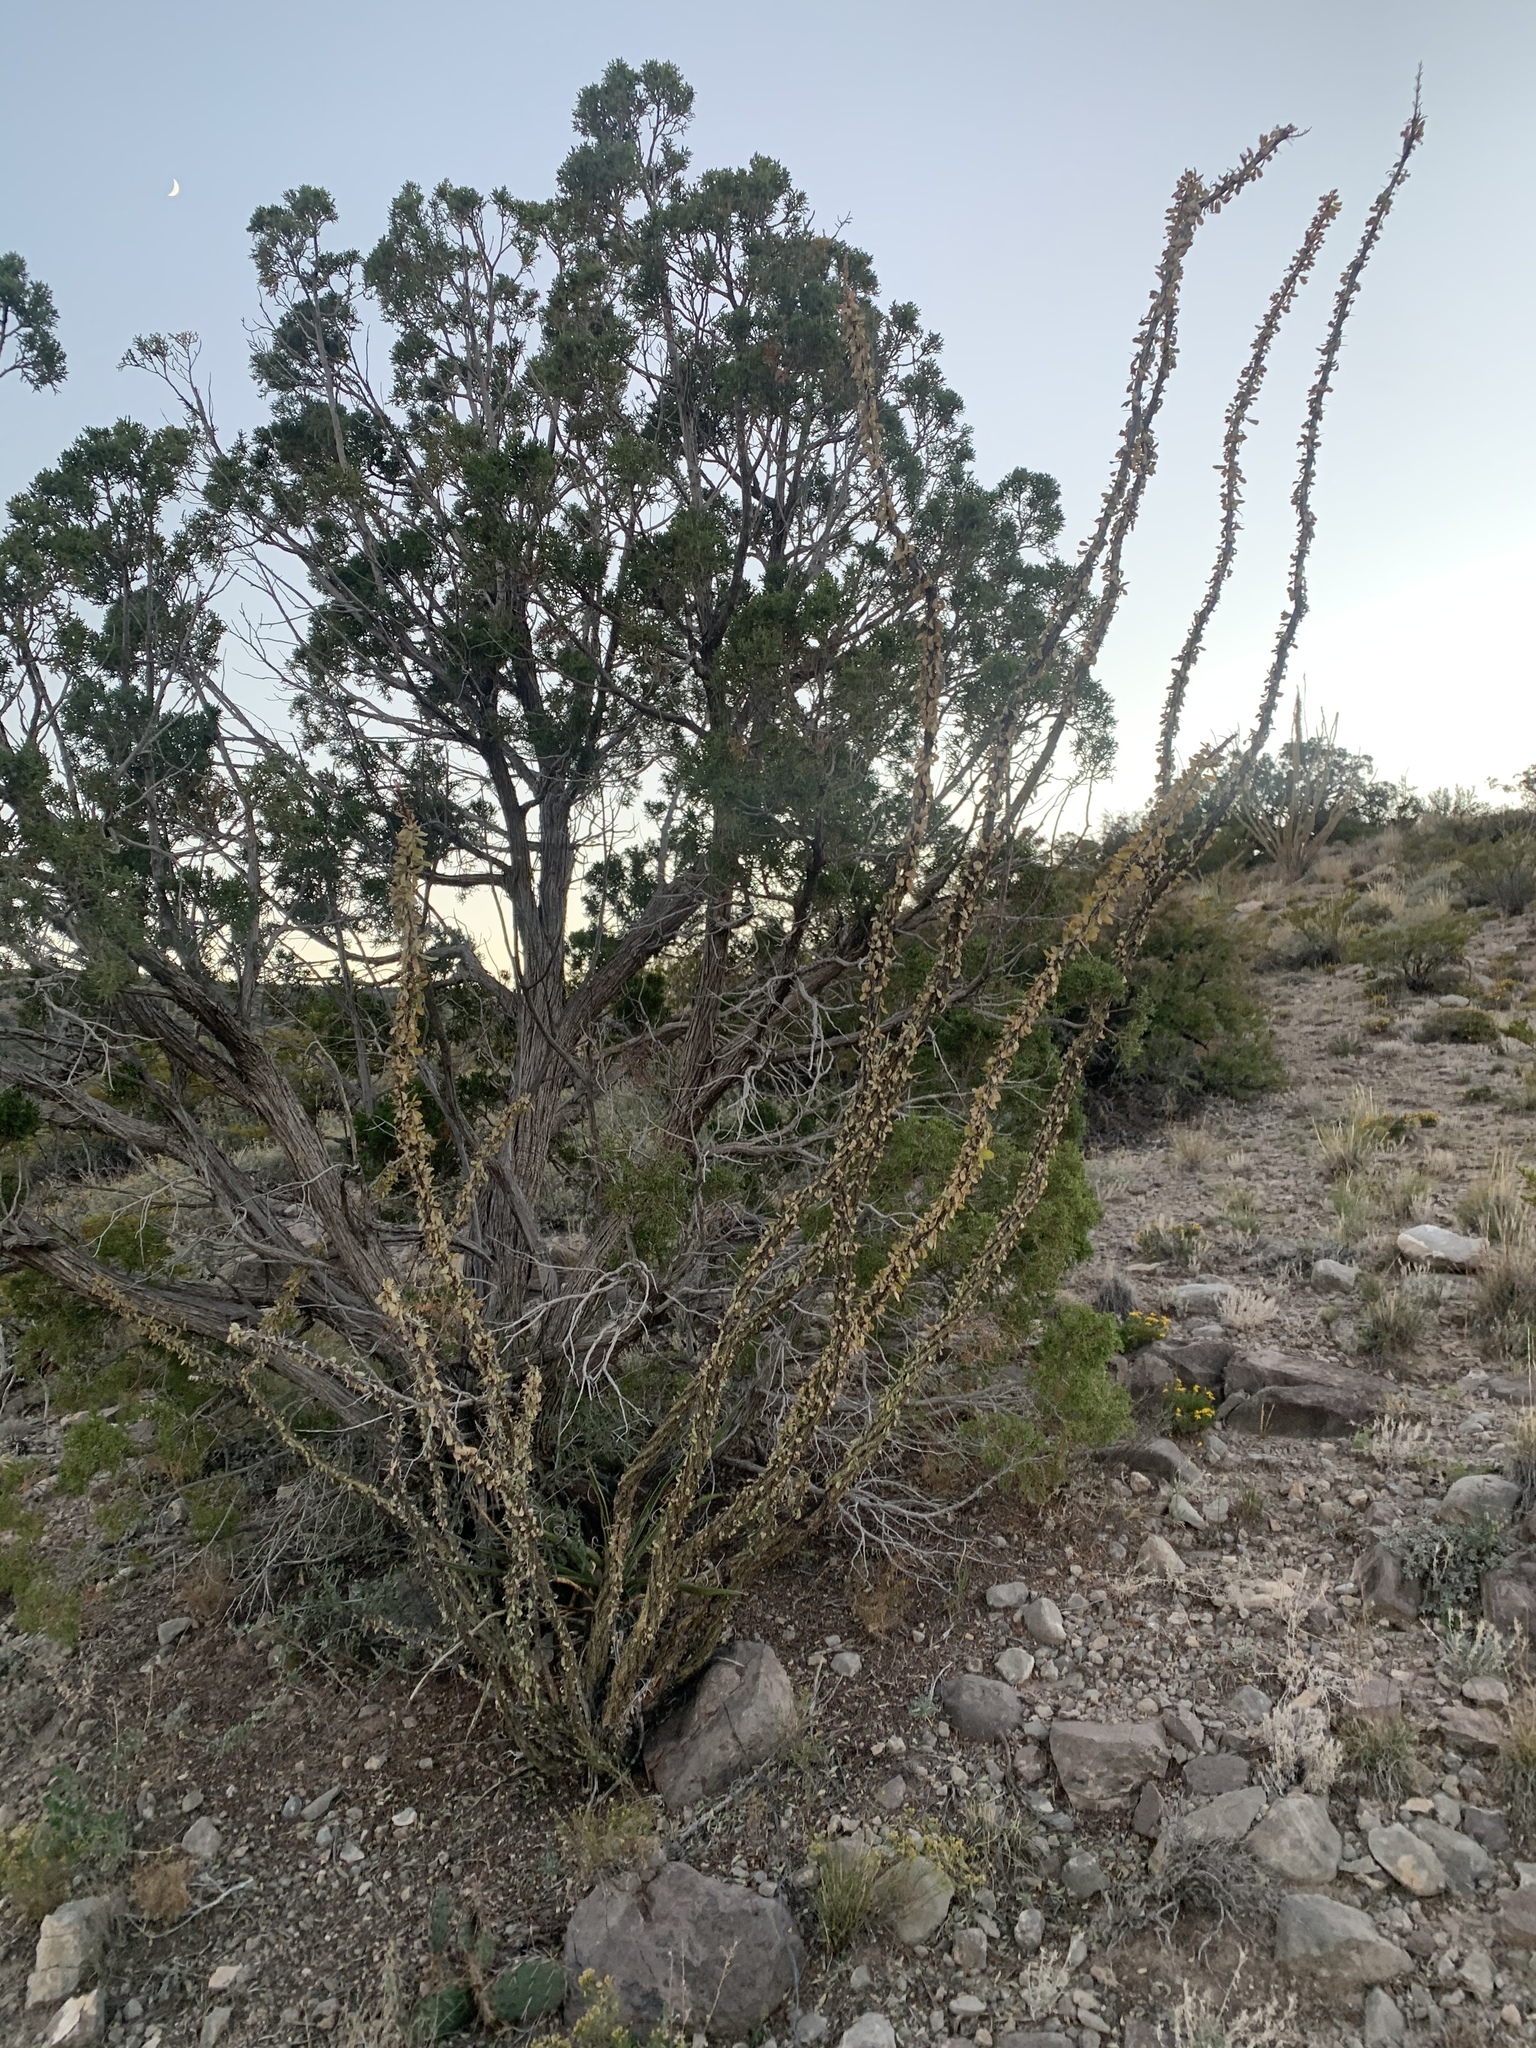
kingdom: Plantae
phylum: Tracheophyta
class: Magnoliopsida
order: Ericales
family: Fouquieriaceae
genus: Fouquieria
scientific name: Fouquieria splendens
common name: Vine-cactus
